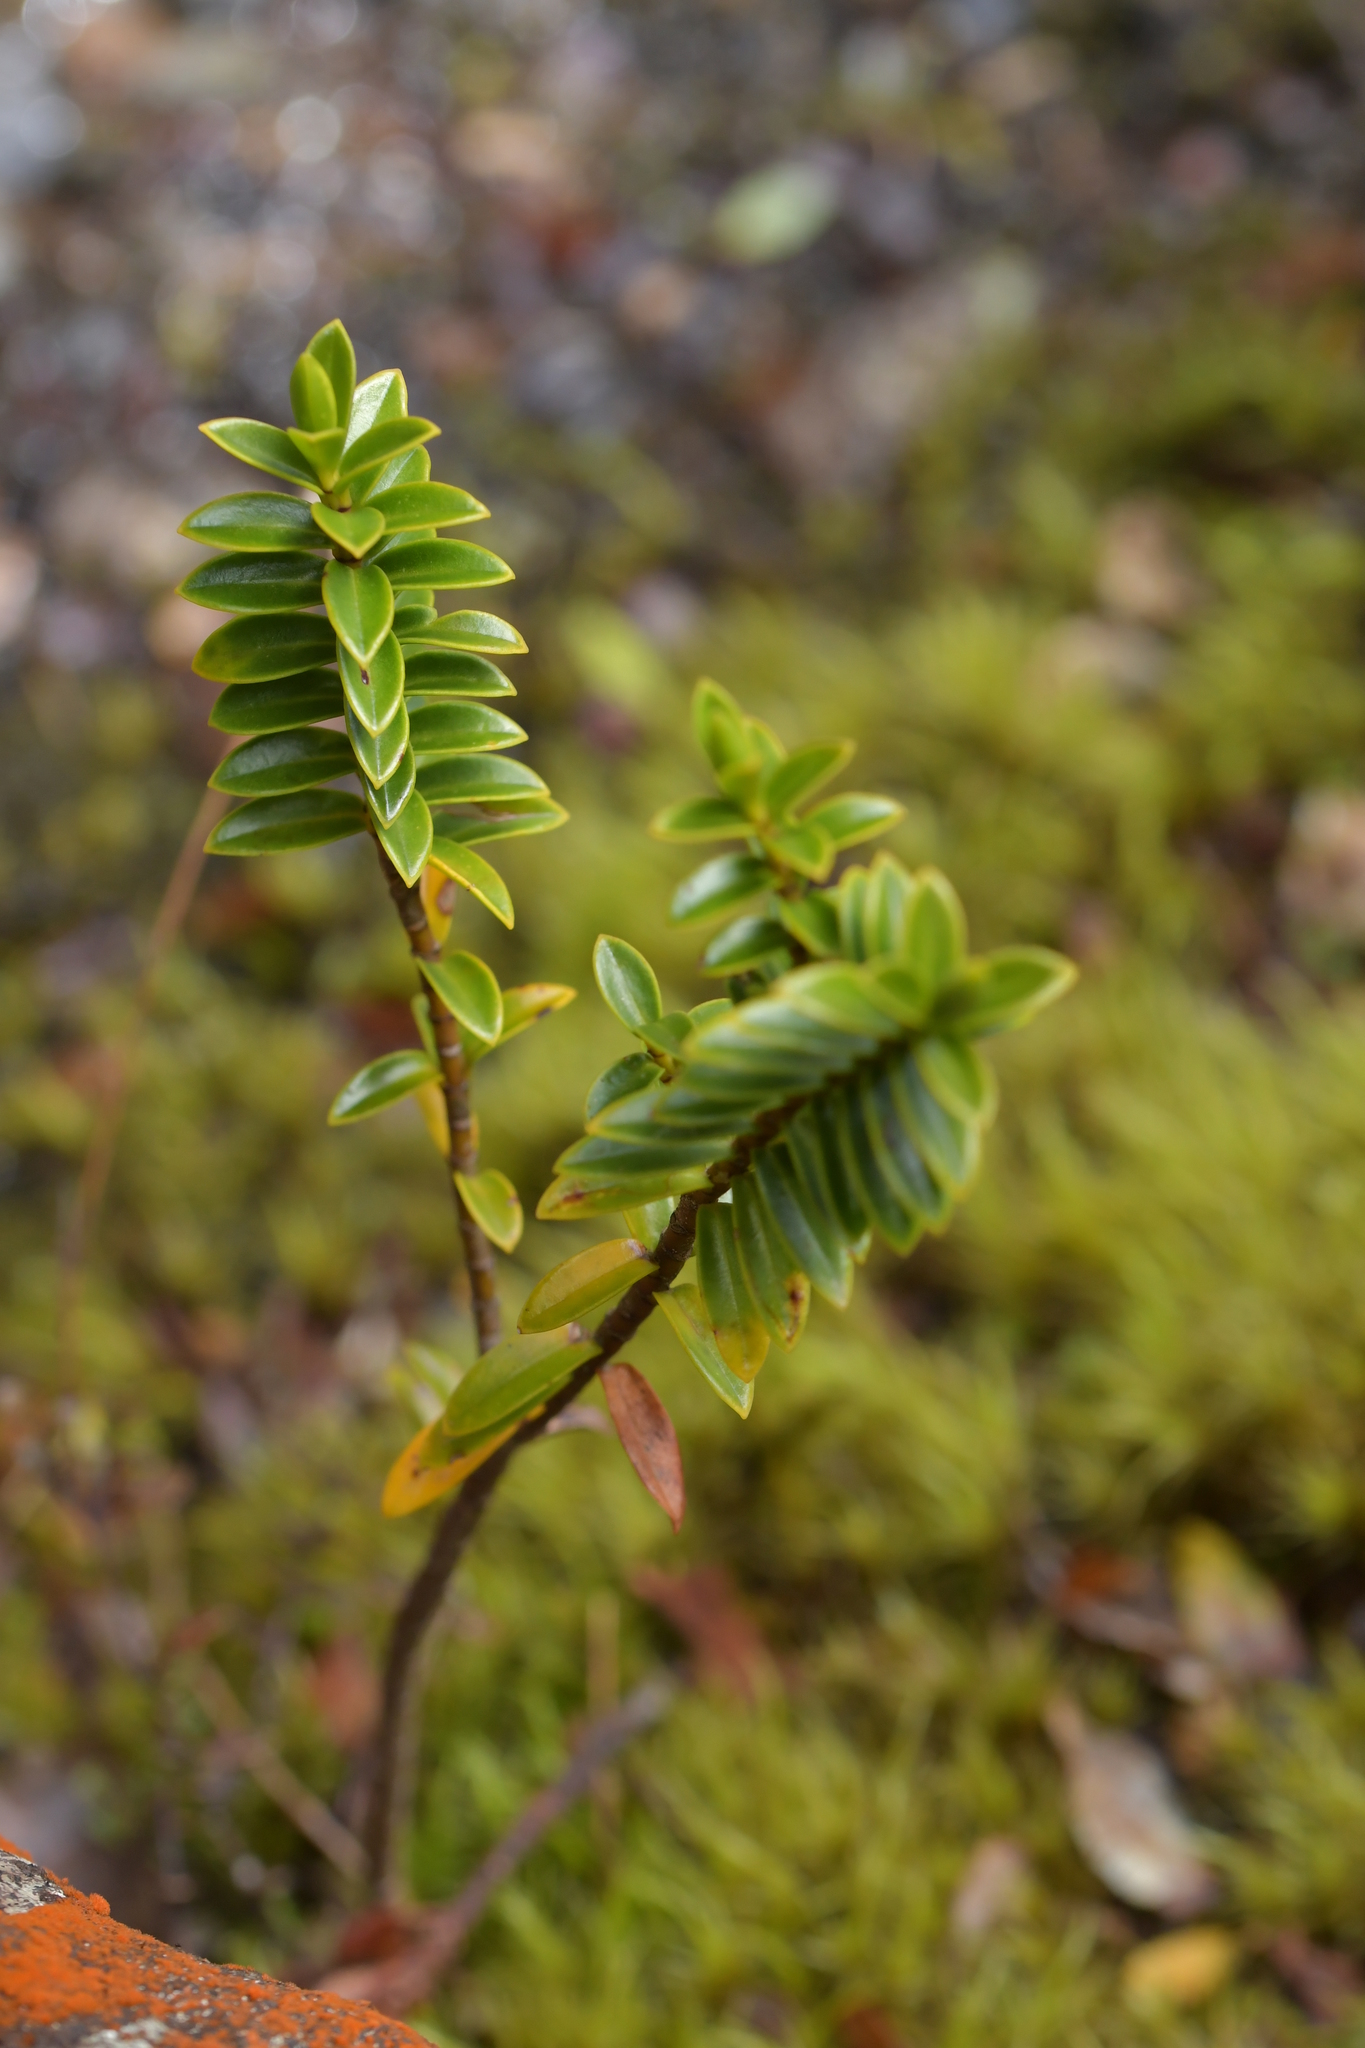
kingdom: Plantae
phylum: Tracheophyta
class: Magnoliopsida
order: Lamiales
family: Plantaginaceae
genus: Veronica
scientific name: Veronica odora
